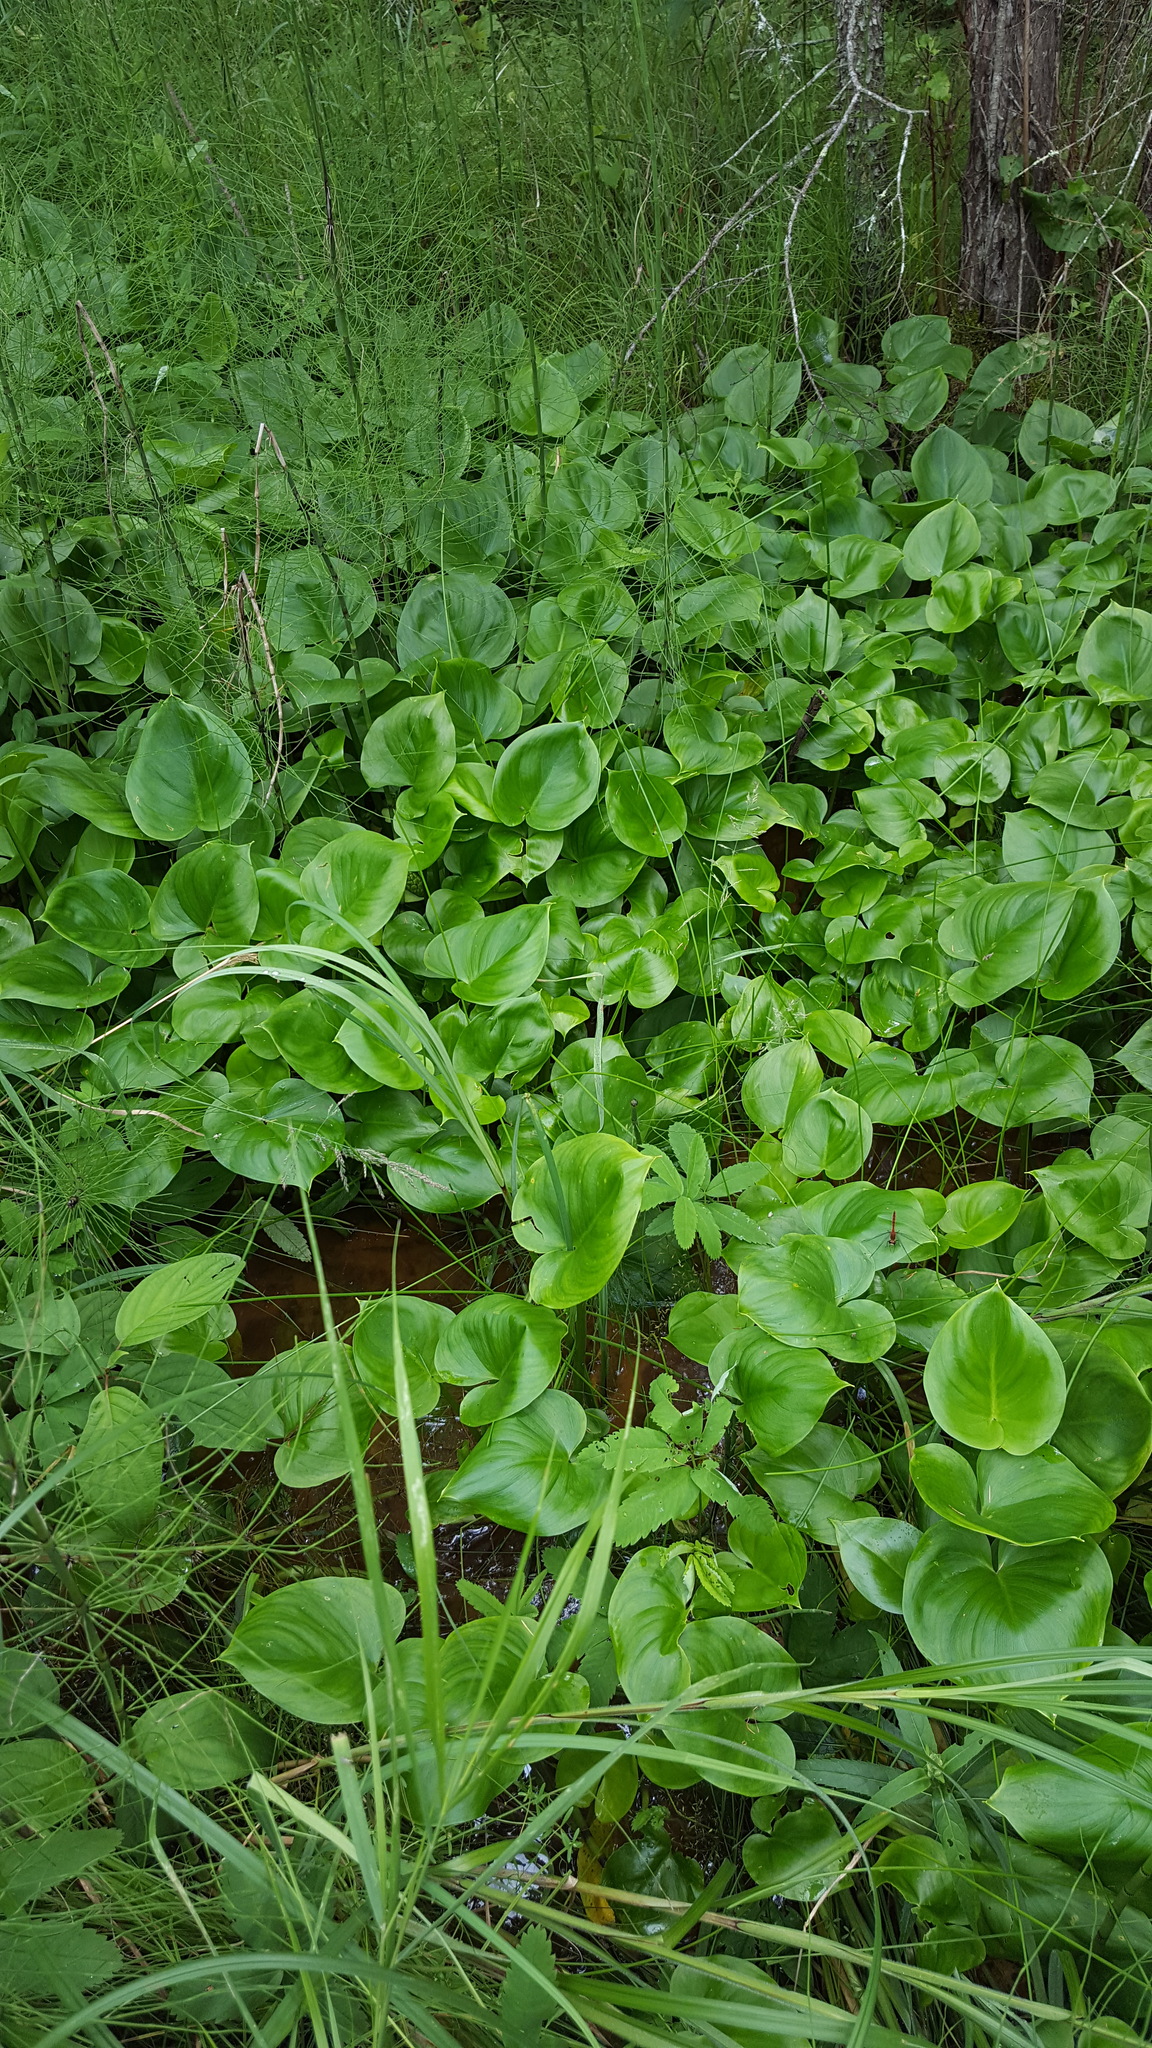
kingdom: Plantae
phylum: Tracheophyta
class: Liliopsida
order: Alismatales
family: Araceae
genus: Calla
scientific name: Calla palustris
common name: Bog arum
